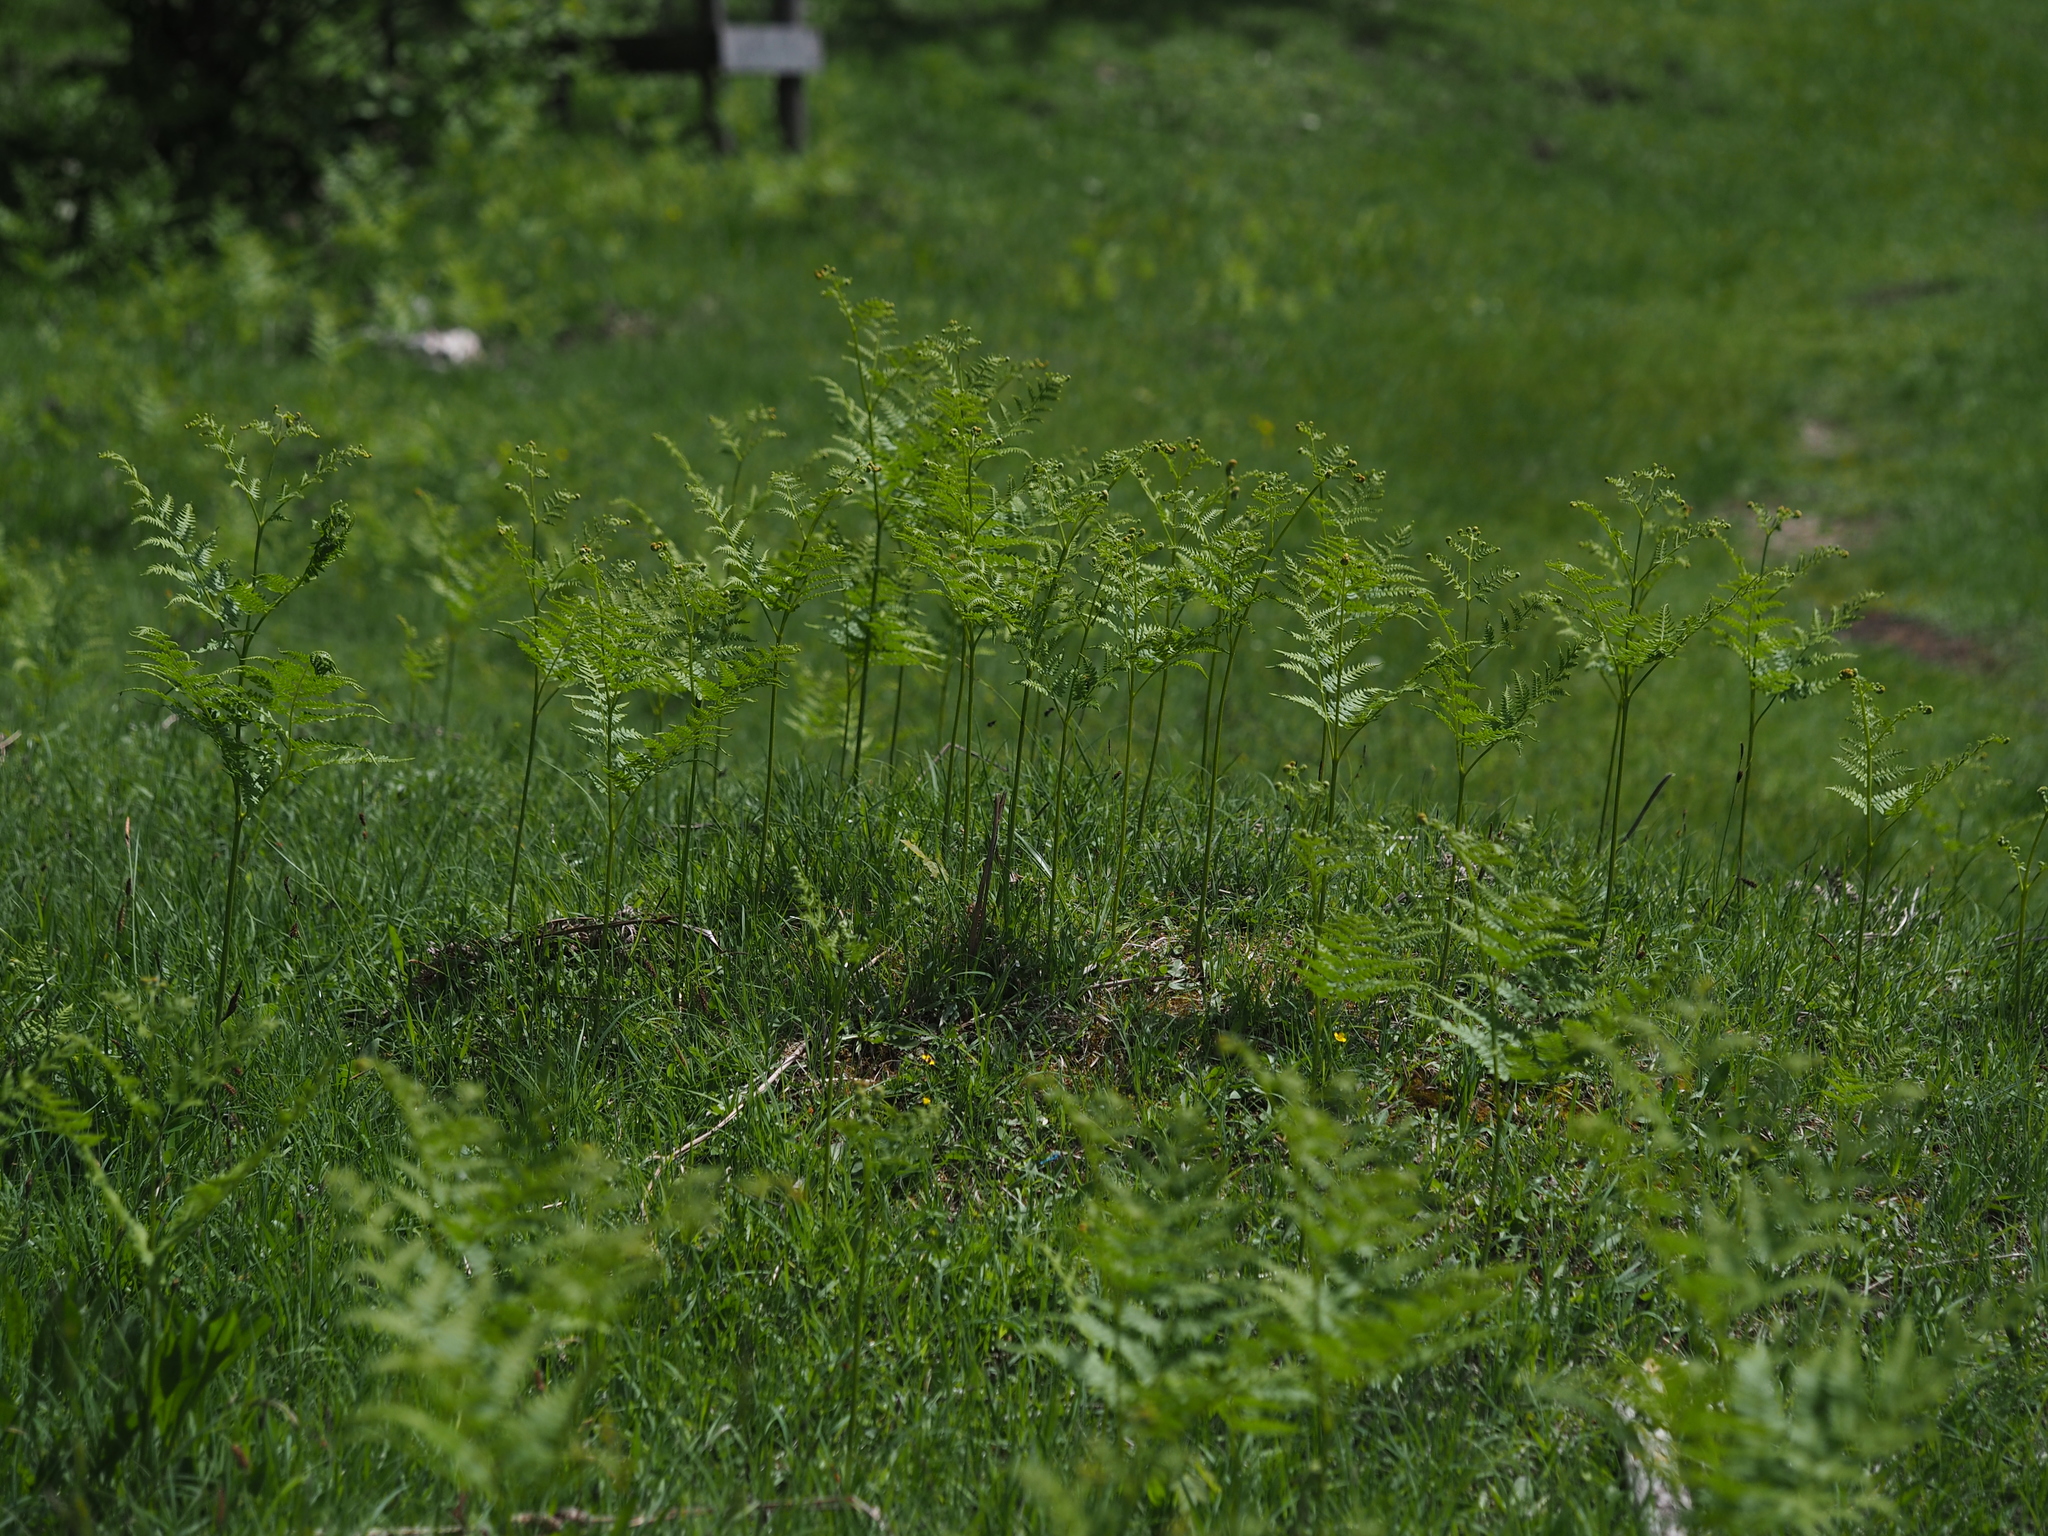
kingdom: Plantae
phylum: Tracheophyta
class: Polypodiopsida
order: Polypodiales
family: Dennstaedtiaceae
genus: Pteridium
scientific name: Pteridium aquilinum
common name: Bracken
